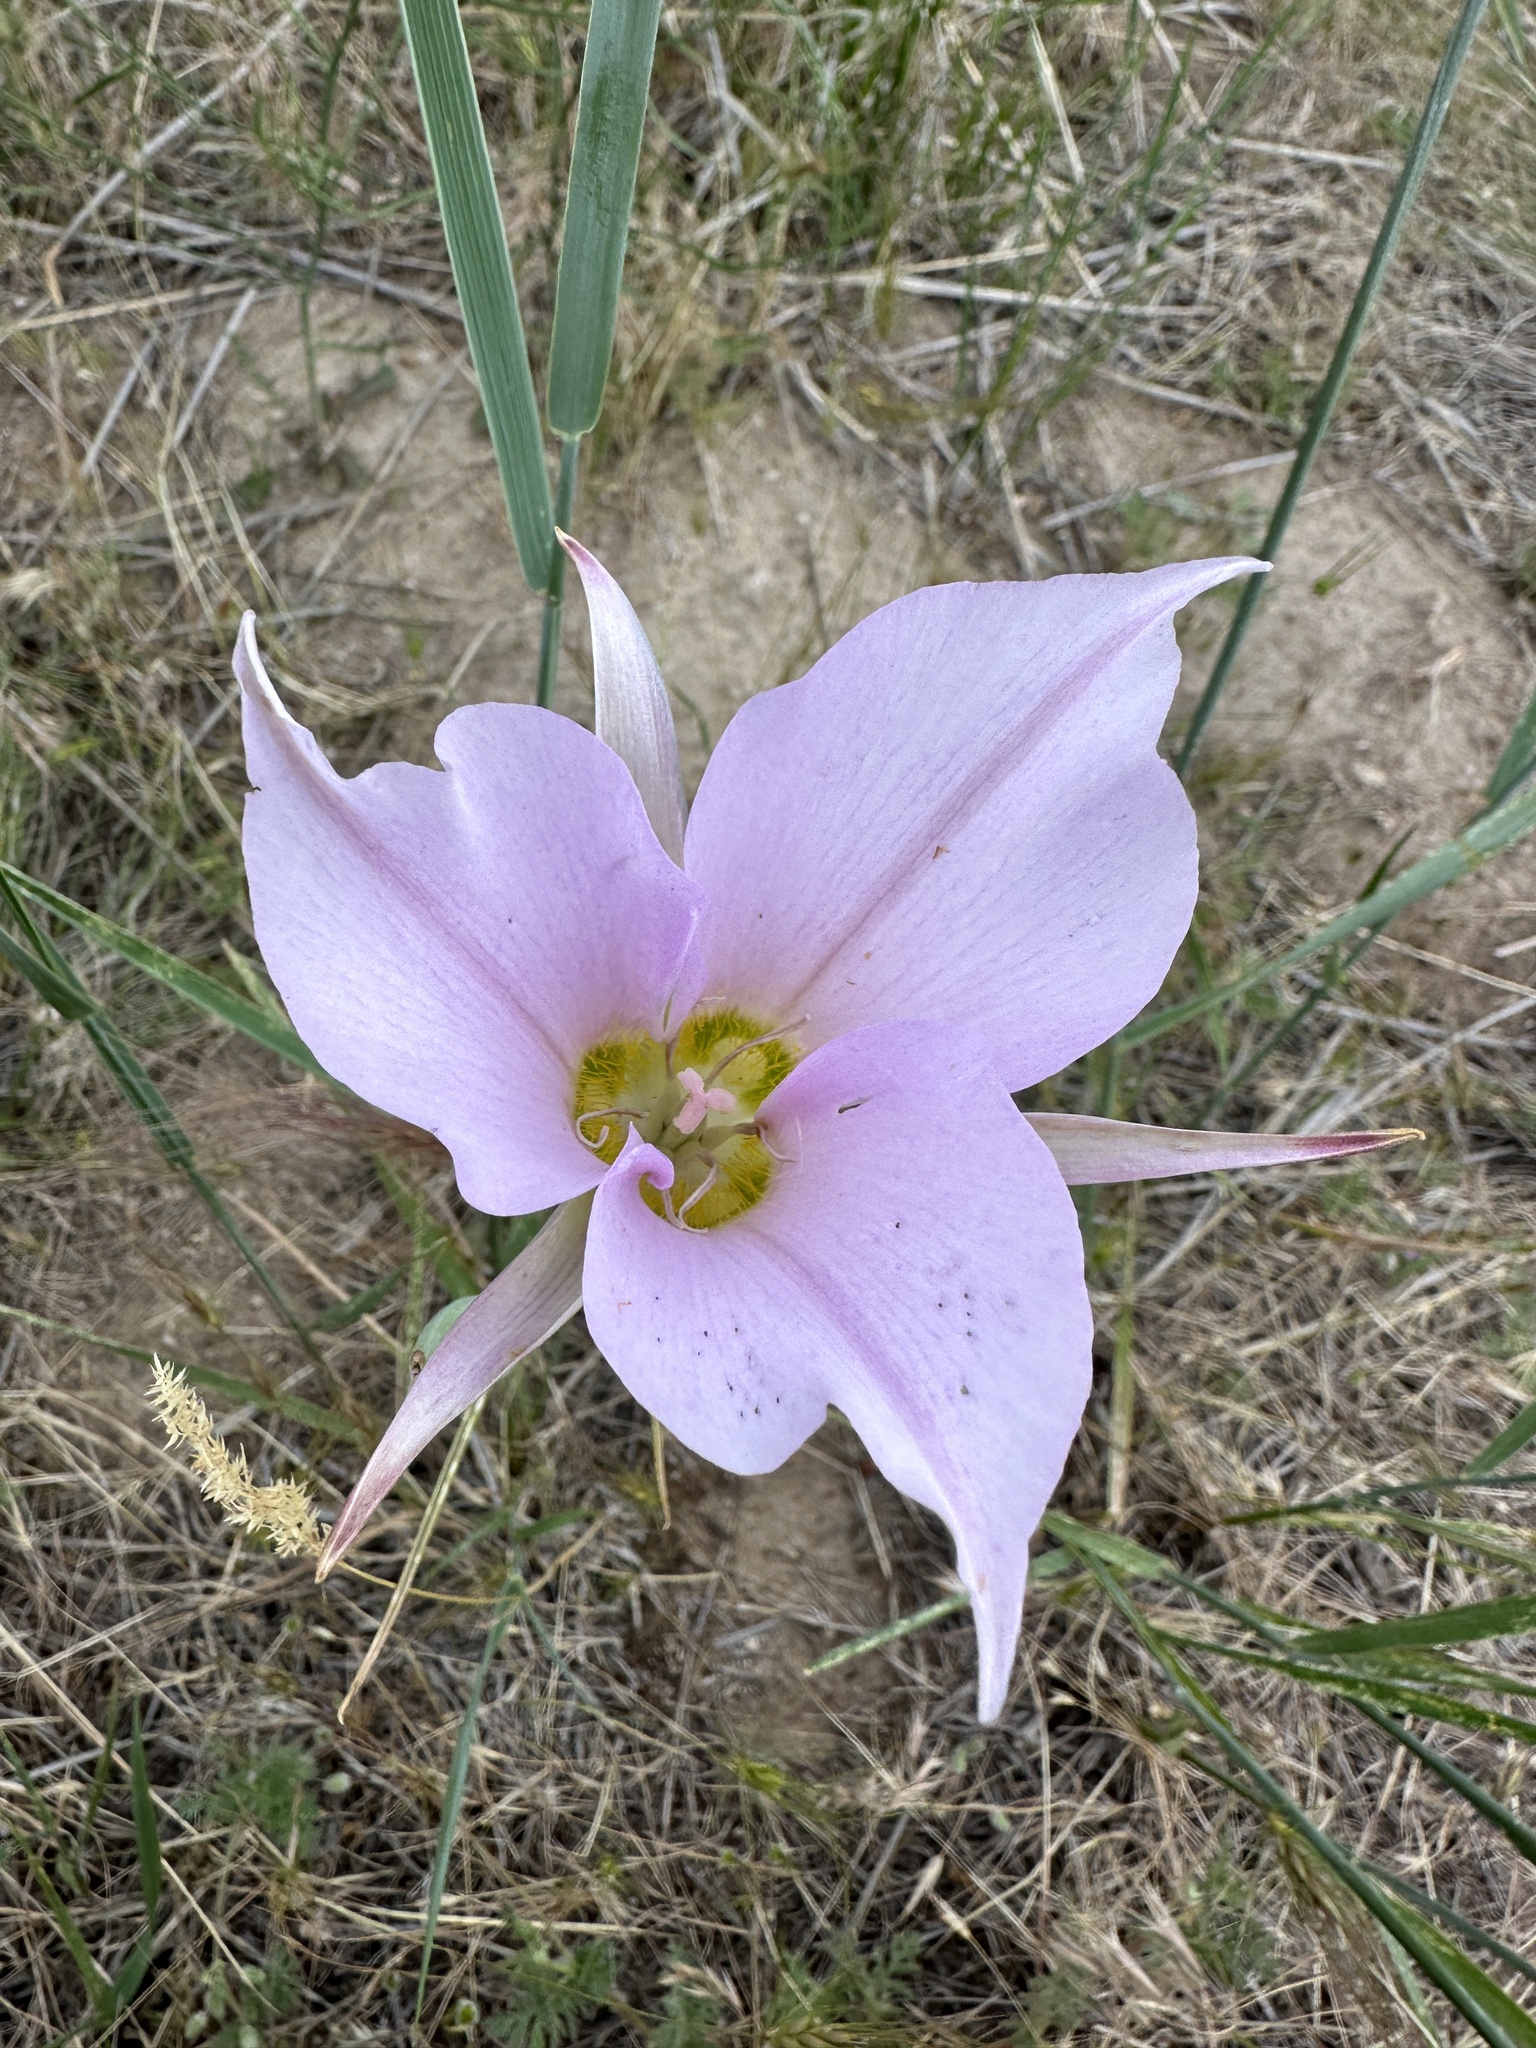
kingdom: Plantae
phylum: Tracheophyta
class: Liliopsida
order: Liliales
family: Liliaceae
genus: Calochortus
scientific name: Calochortus macrocarpus
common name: Green-band mariposa lily
